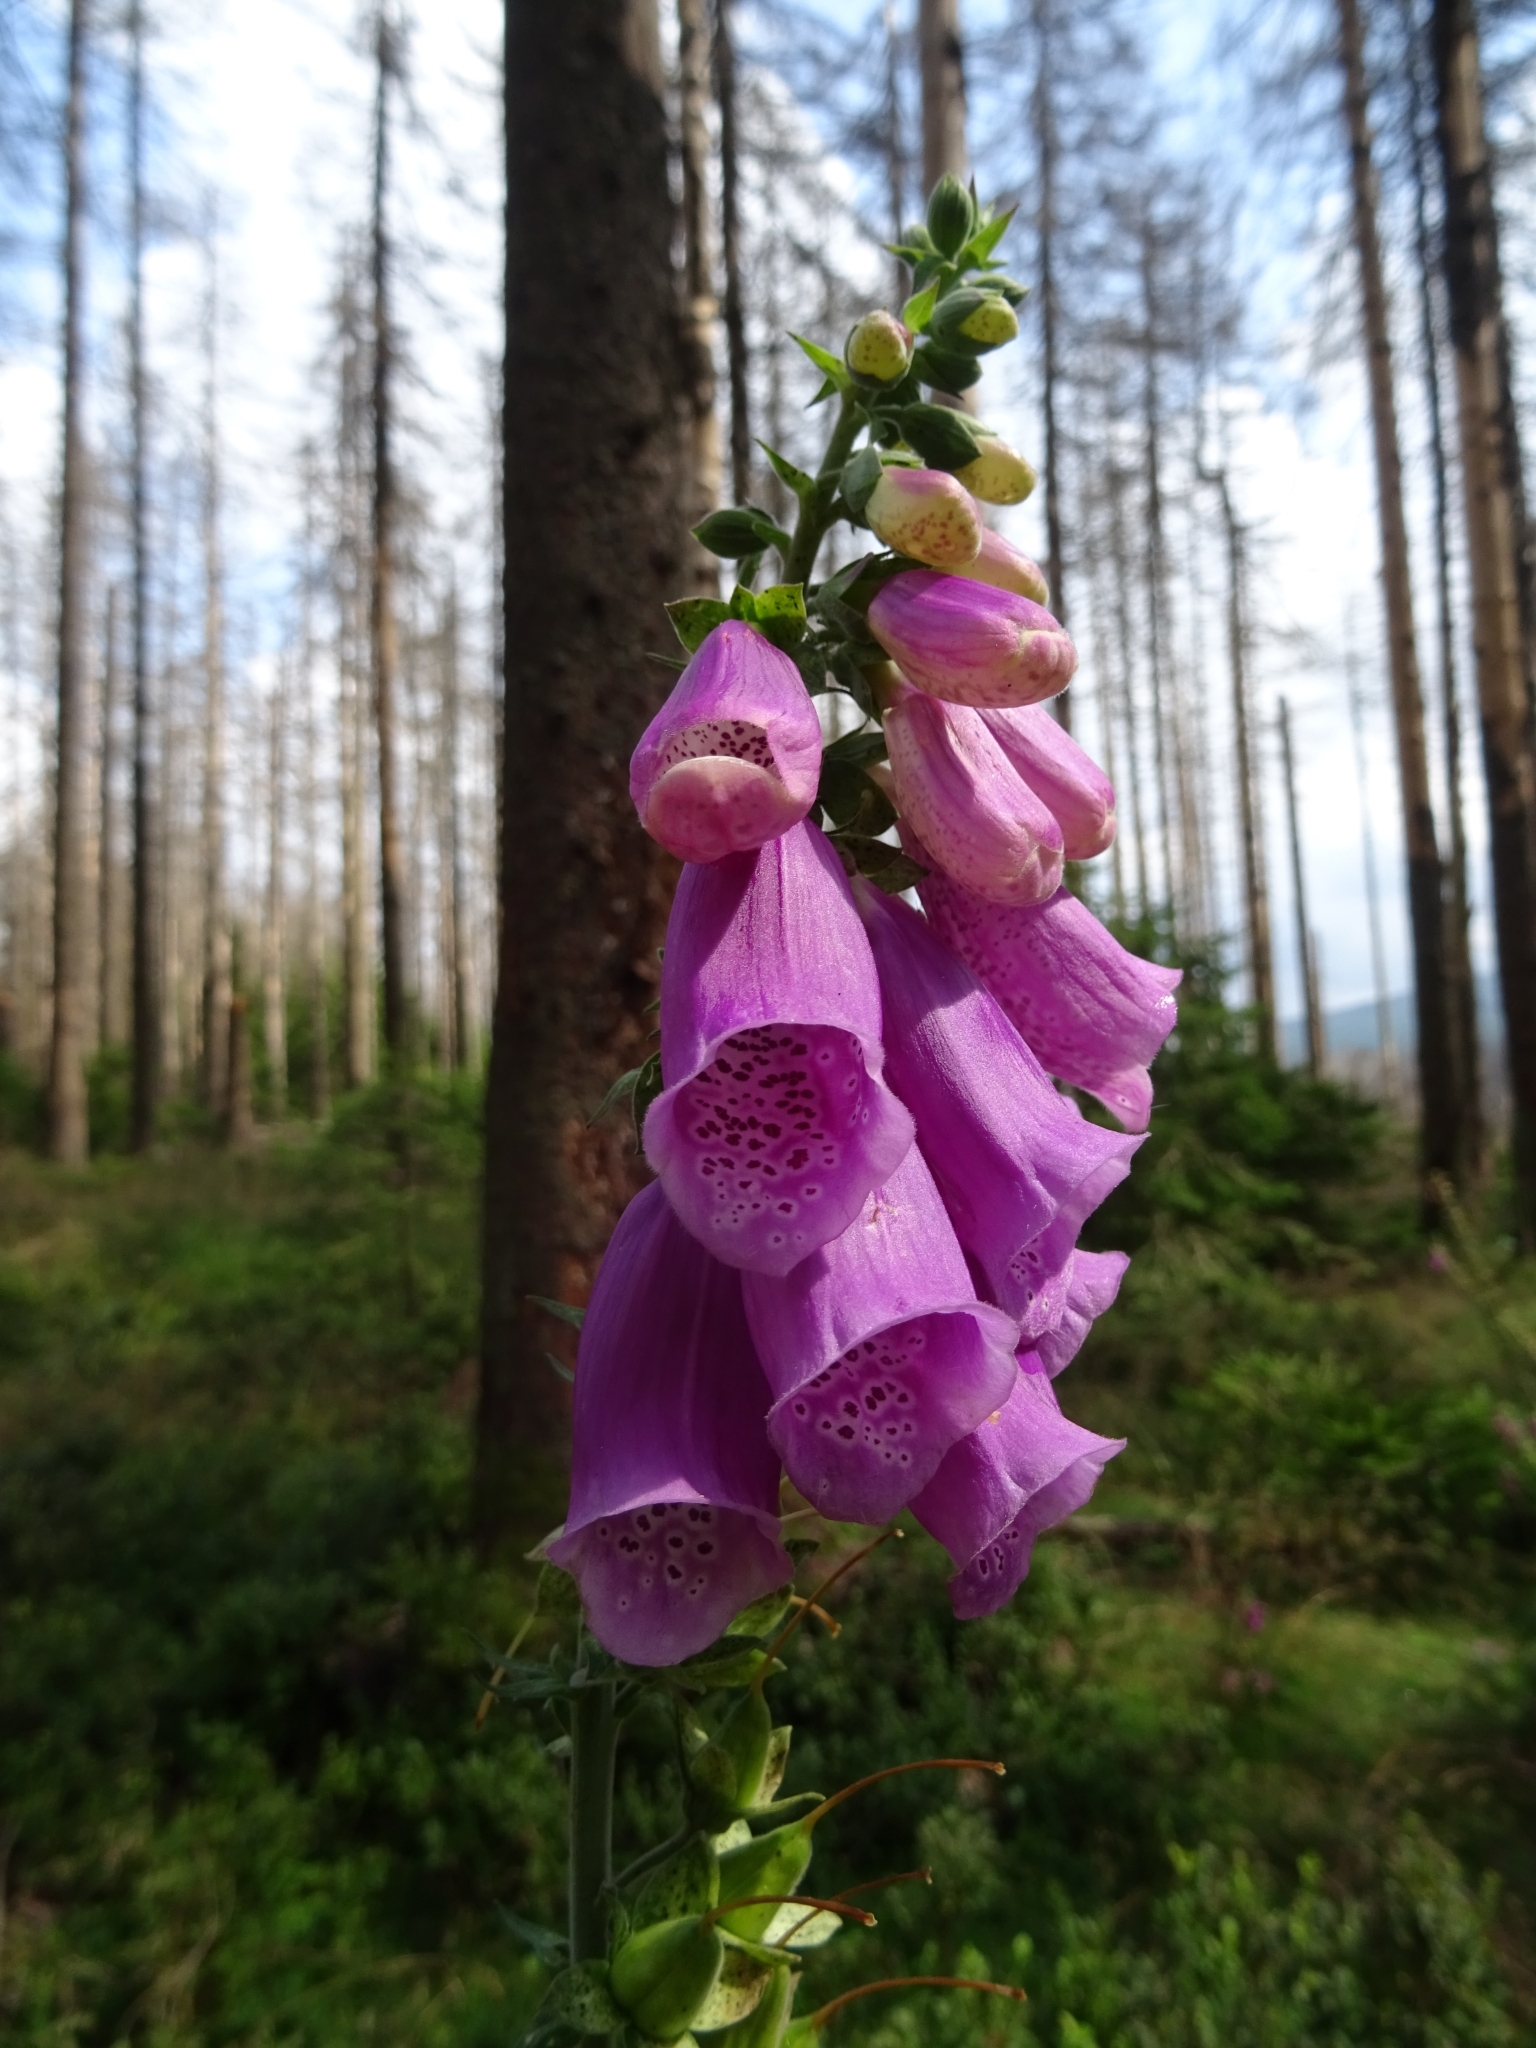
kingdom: Plantae
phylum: Tracheophyta
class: Magnoliopsida
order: Lamiales
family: Plantaginaceae
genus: Digitalis
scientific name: Digitalis purpurea
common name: Foxglove
